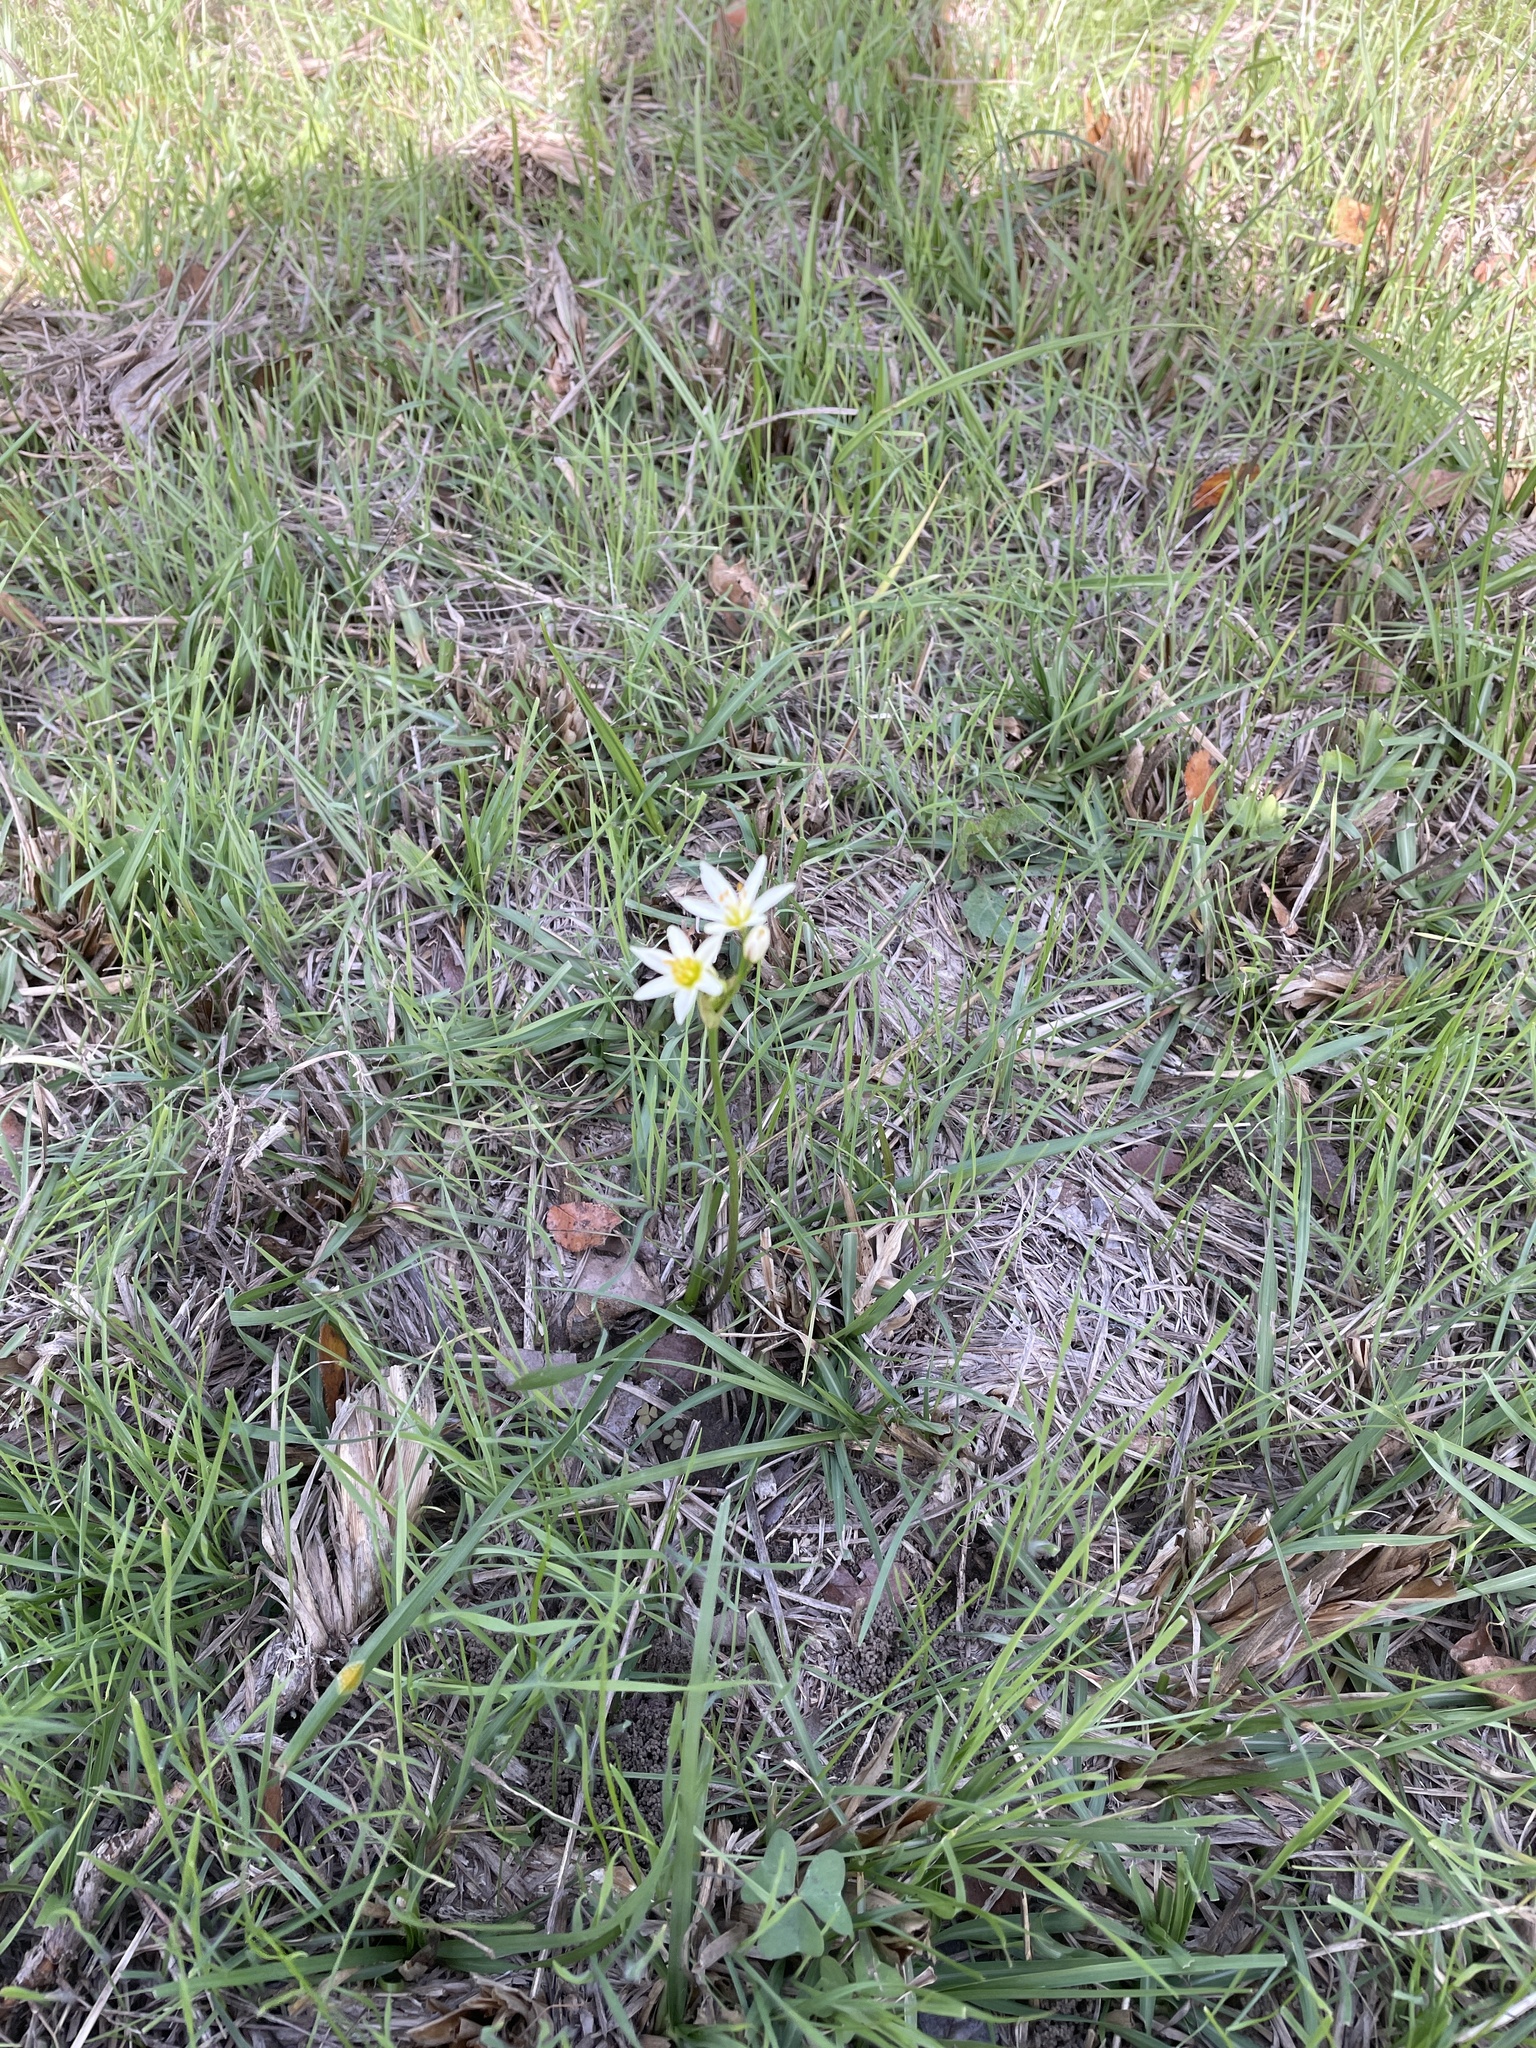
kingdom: Plantae
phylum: Tracheophyta
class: Liliopsida
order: Asparagales
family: Amaryllidaceae
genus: Nothoscordum
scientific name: Nothoscordum bivalve
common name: Crow-poison
